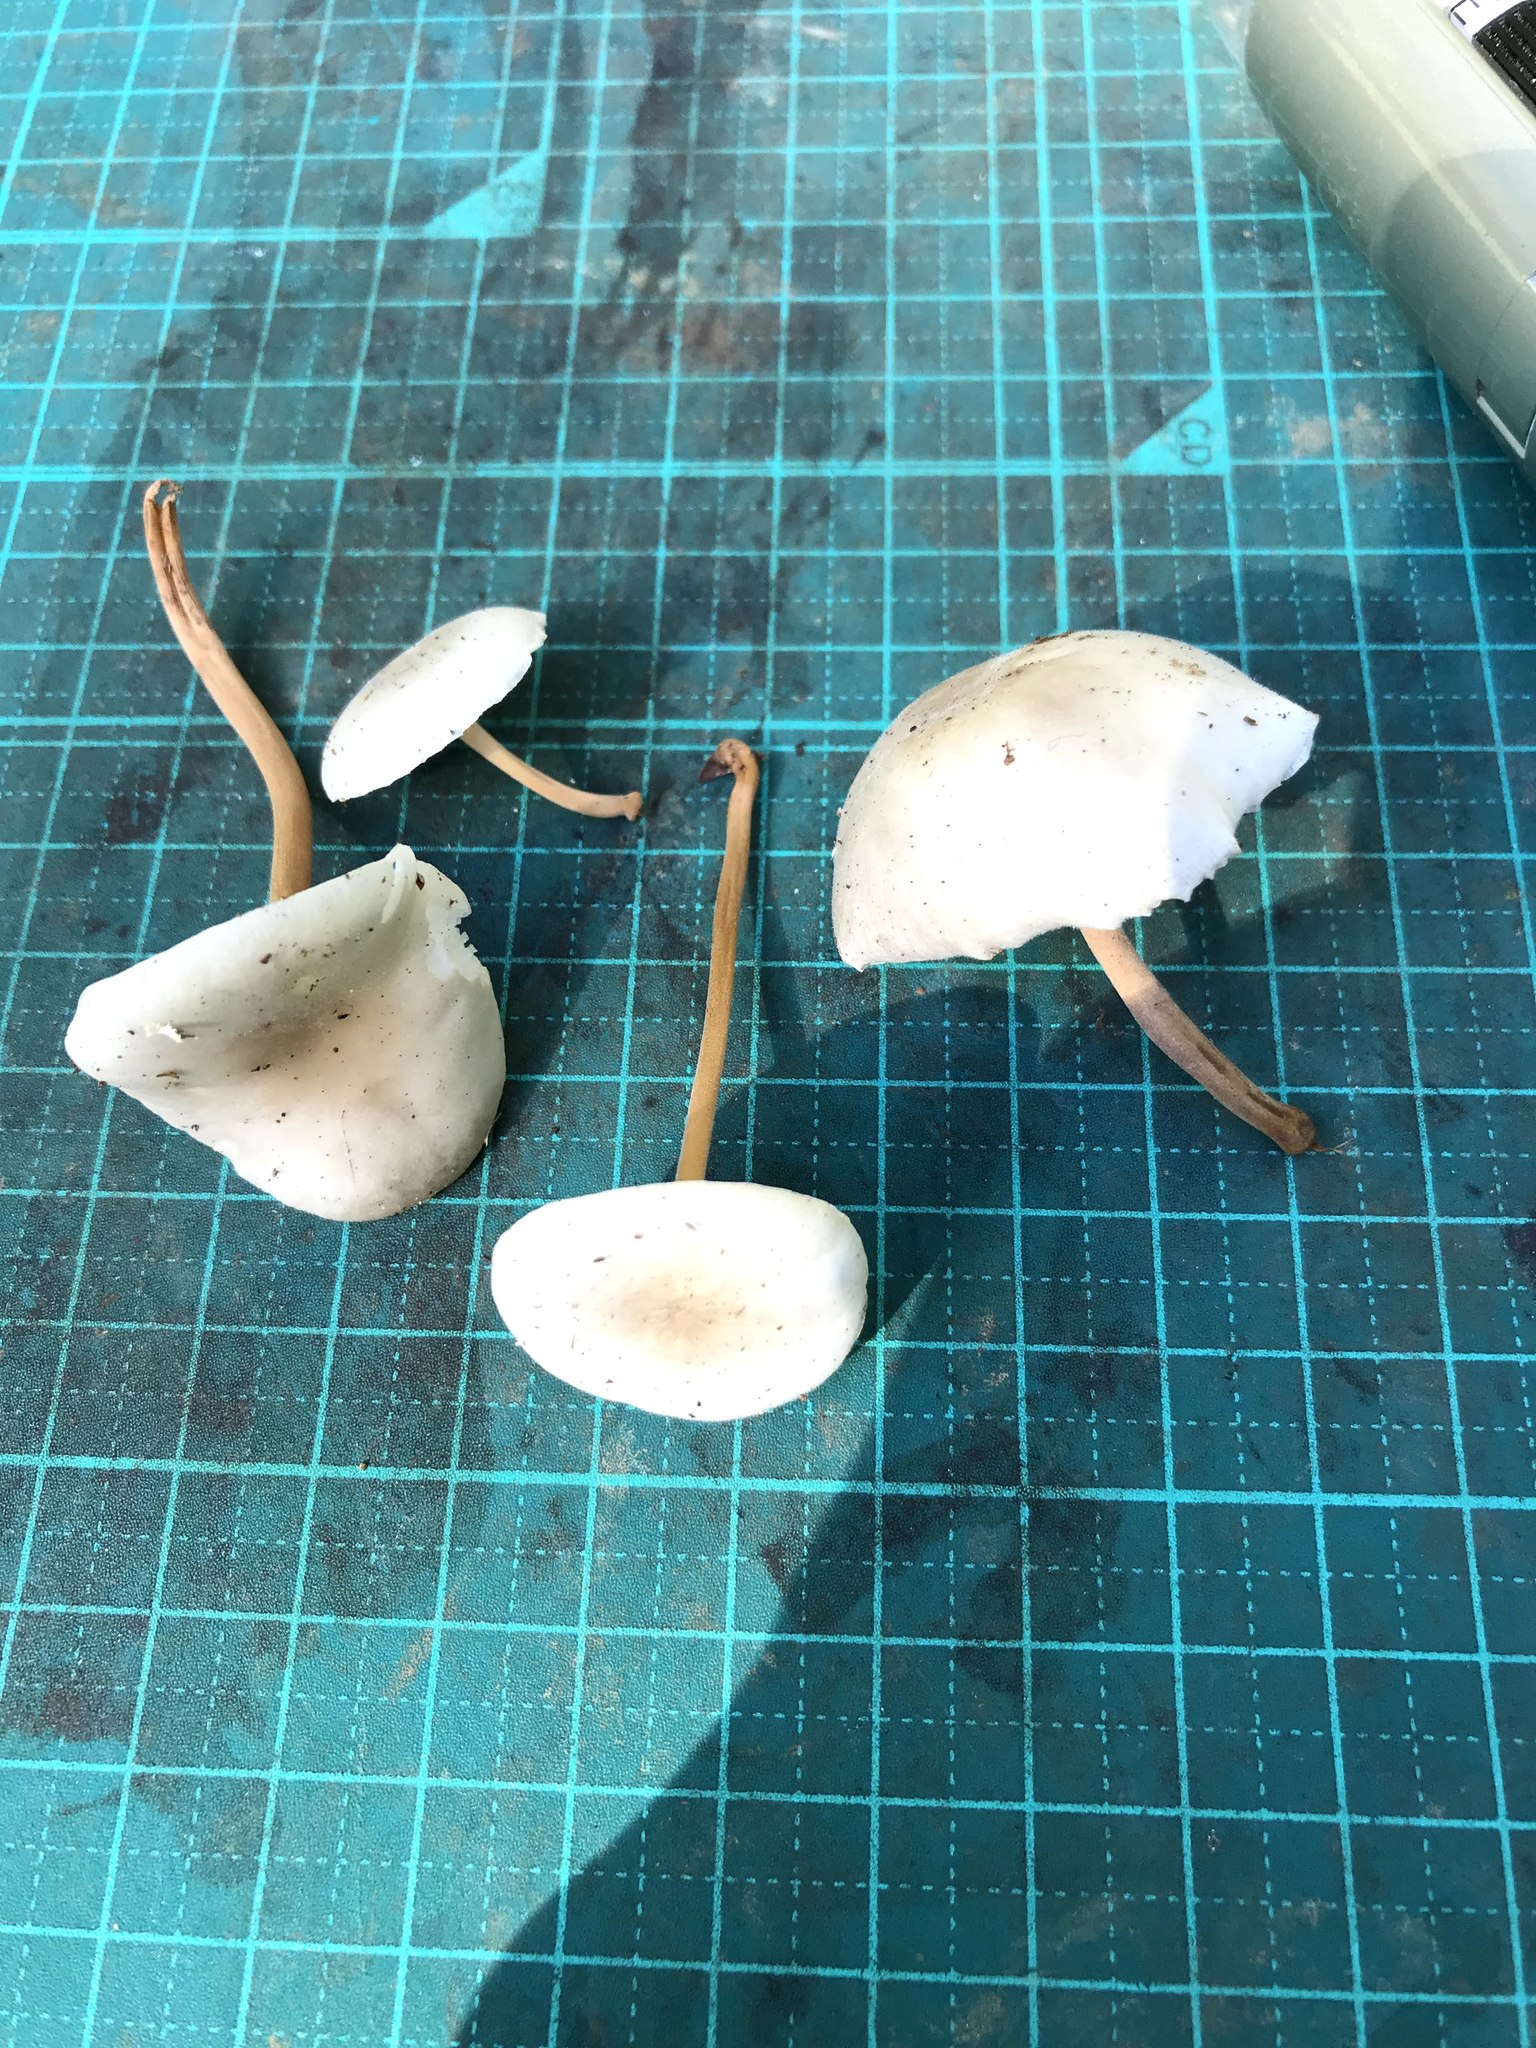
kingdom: Fungi
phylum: Basidiomycota
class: Agaricomycetes
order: Agaricales
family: Physalacriaceae
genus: Strobilurus
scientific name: Strobilurus ohshimae
